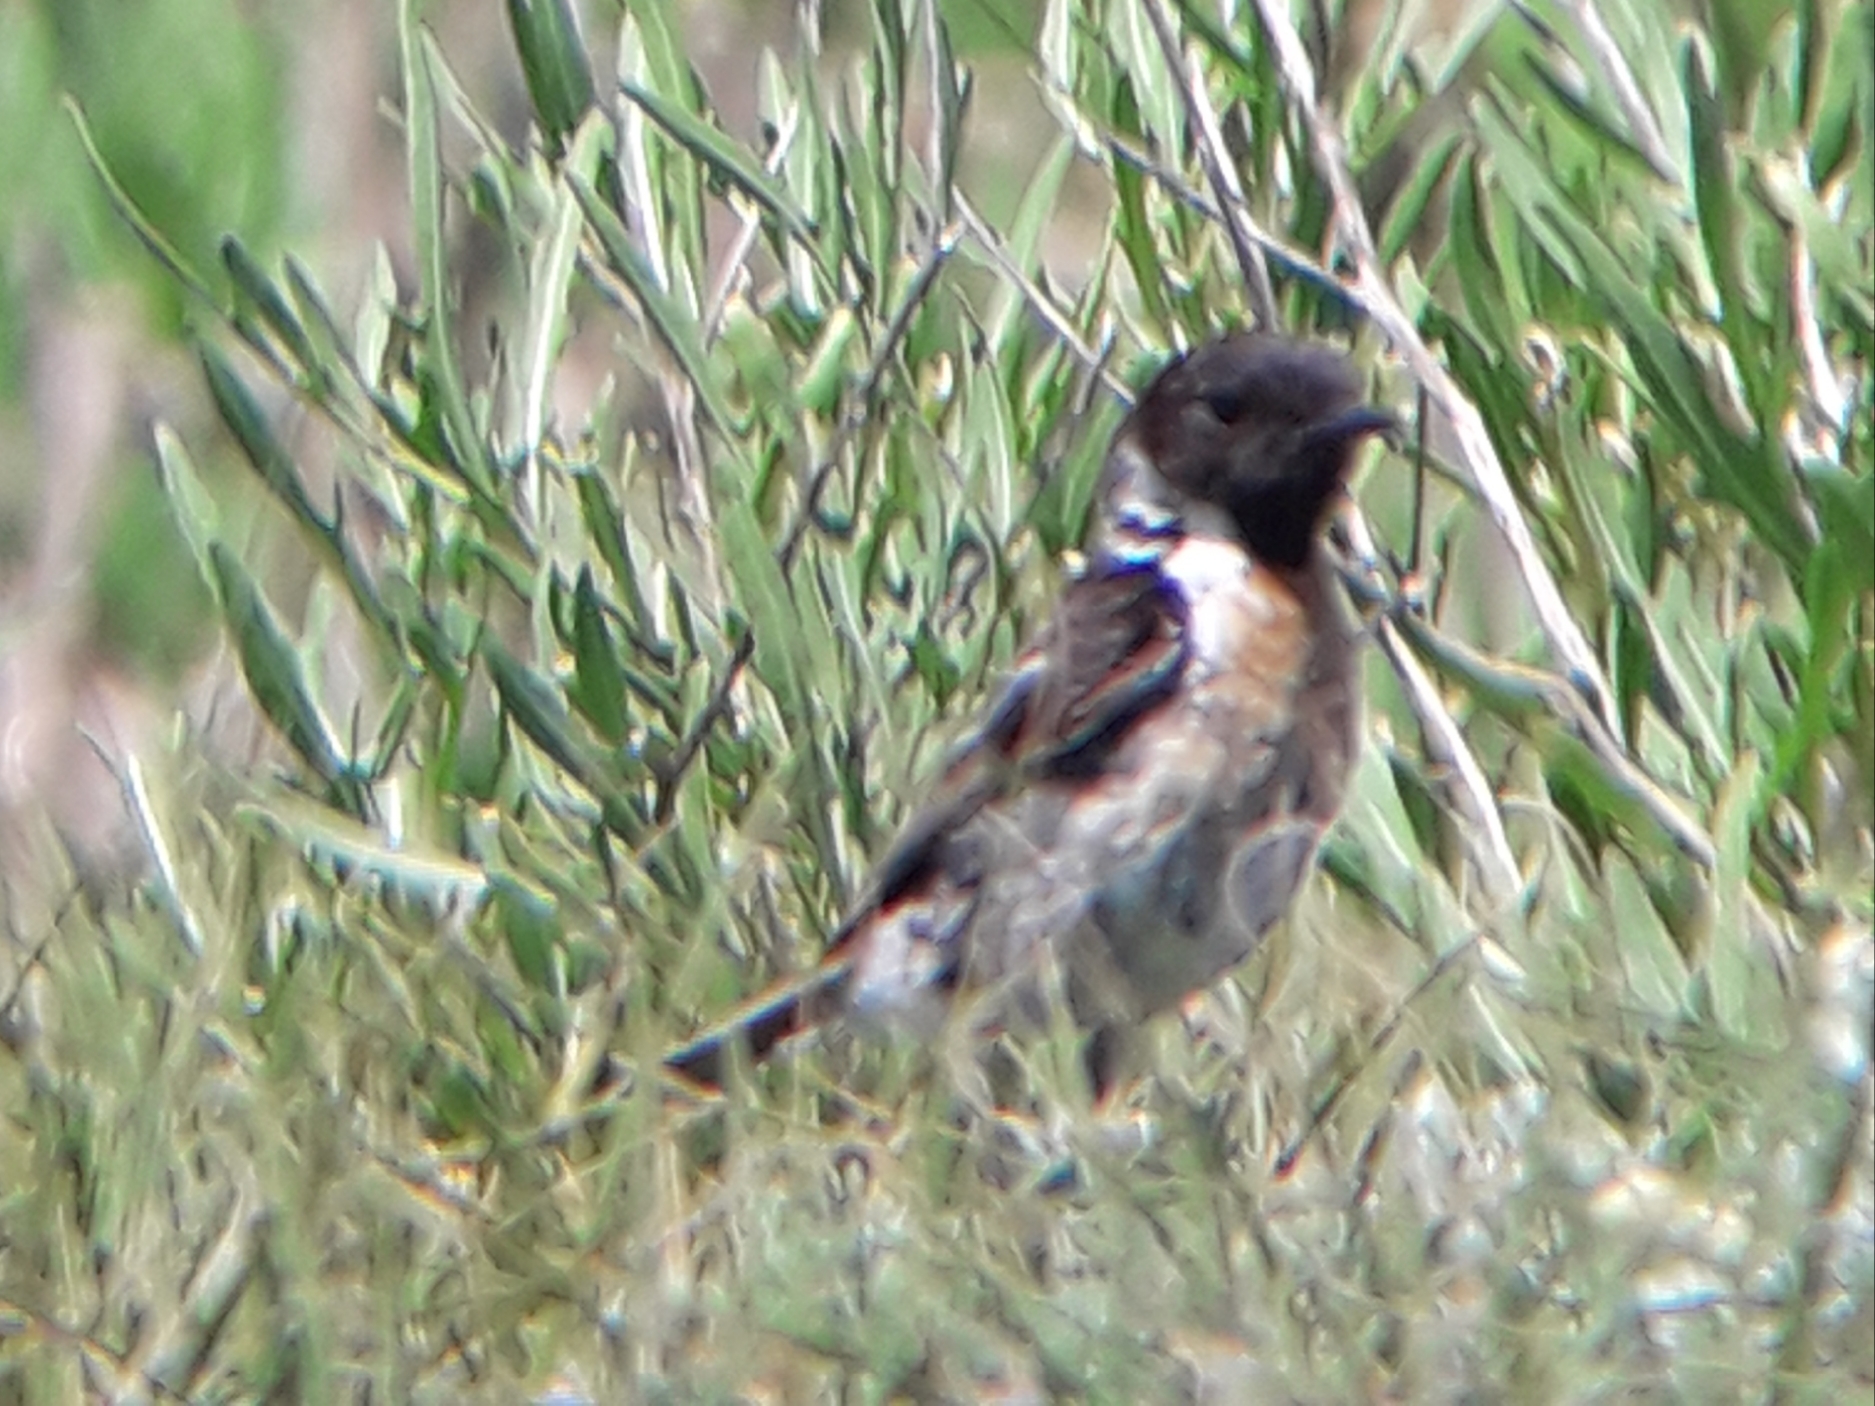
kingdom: Animalia
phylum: Chordata
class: Aves
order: Passeriformes
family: Muscicapidae
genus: Saxicola
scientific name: Saxicola rubicola
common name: European stonechat
